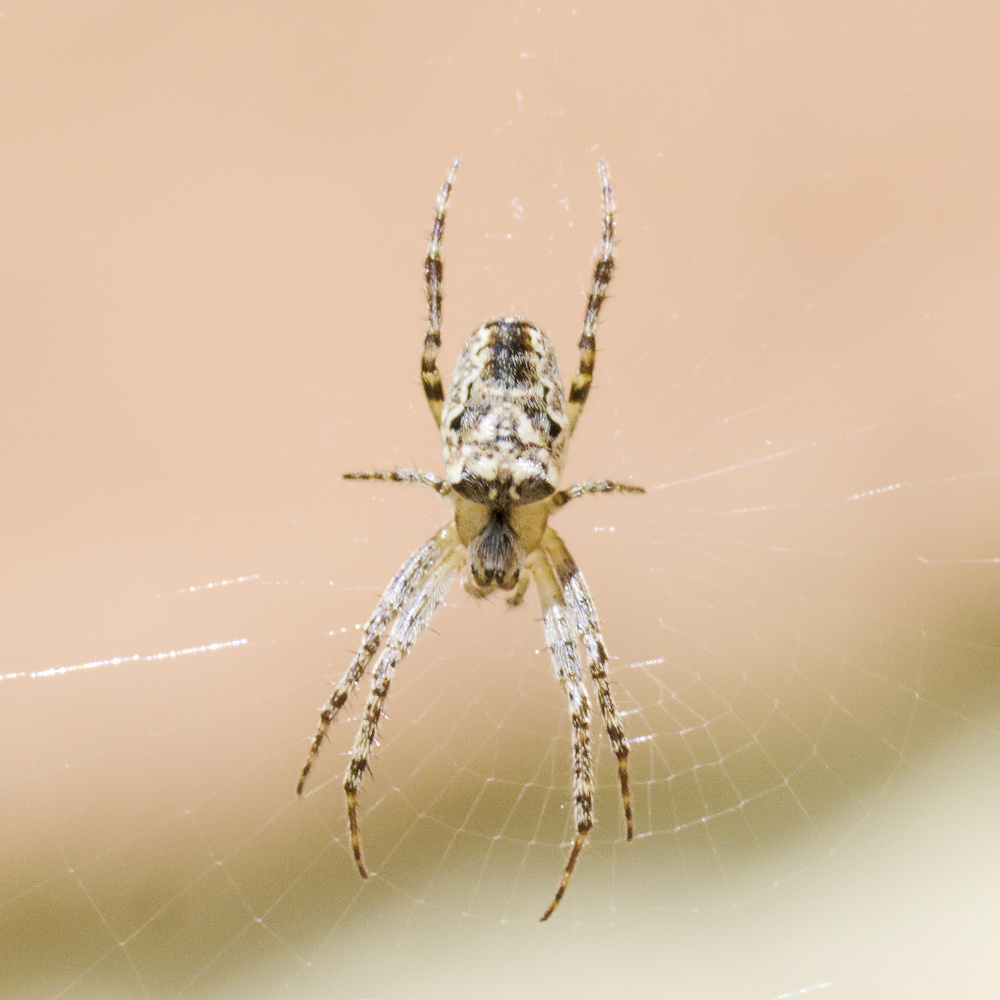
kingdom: Animalia
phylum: Arthropoda
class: Arachnida
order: Araneae
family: Araneidae
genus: Plebs
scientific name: Plebs eburnus
